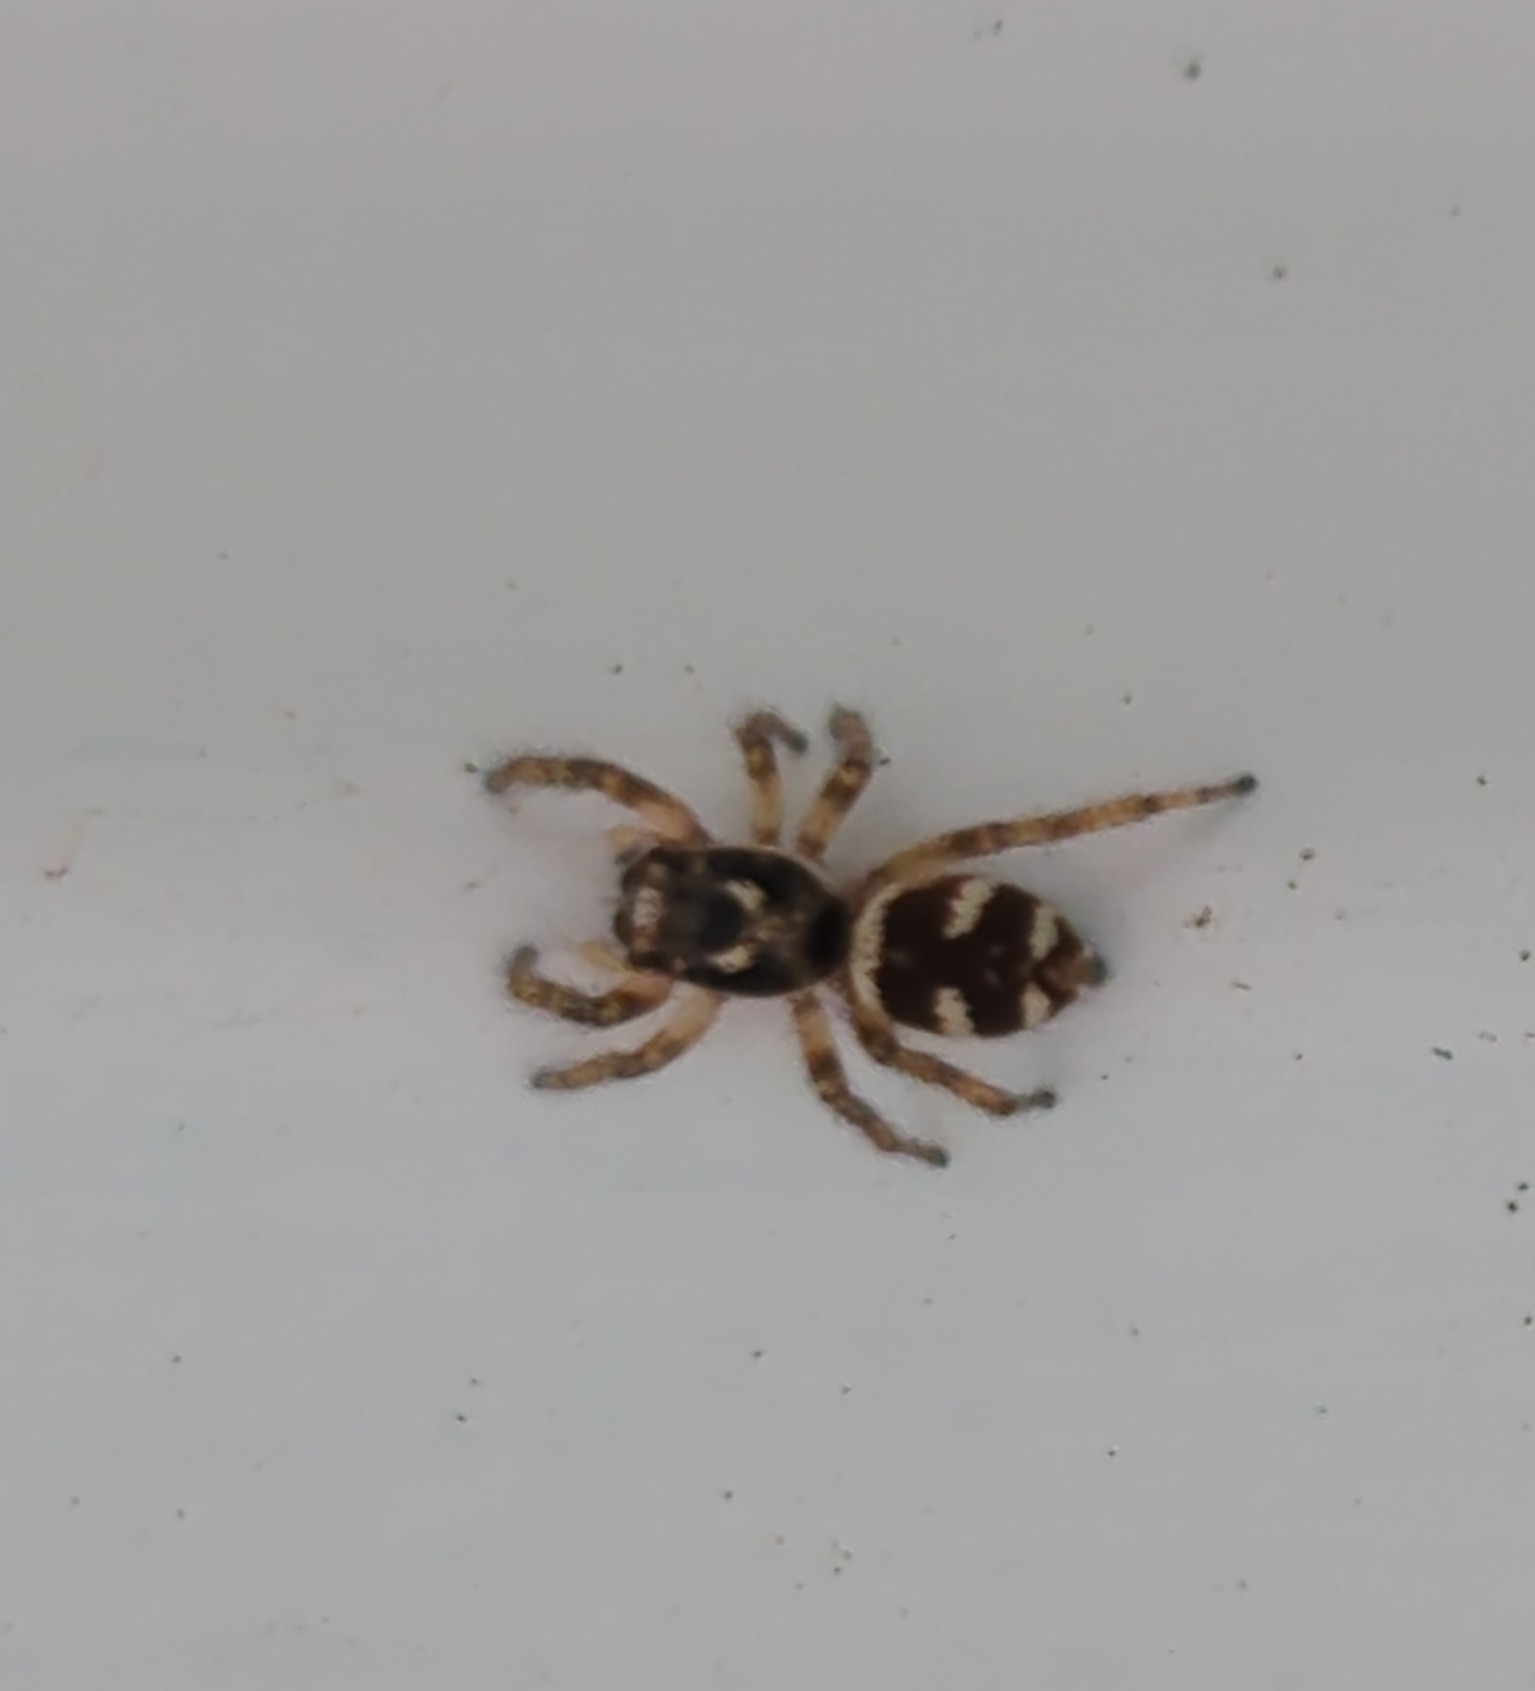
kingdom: Animalia
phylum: Arthropoda
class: Arachnida
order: Araneae
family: Salticidae
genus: Salticus
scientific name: Salticus scenicus
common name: Zebra jumper
